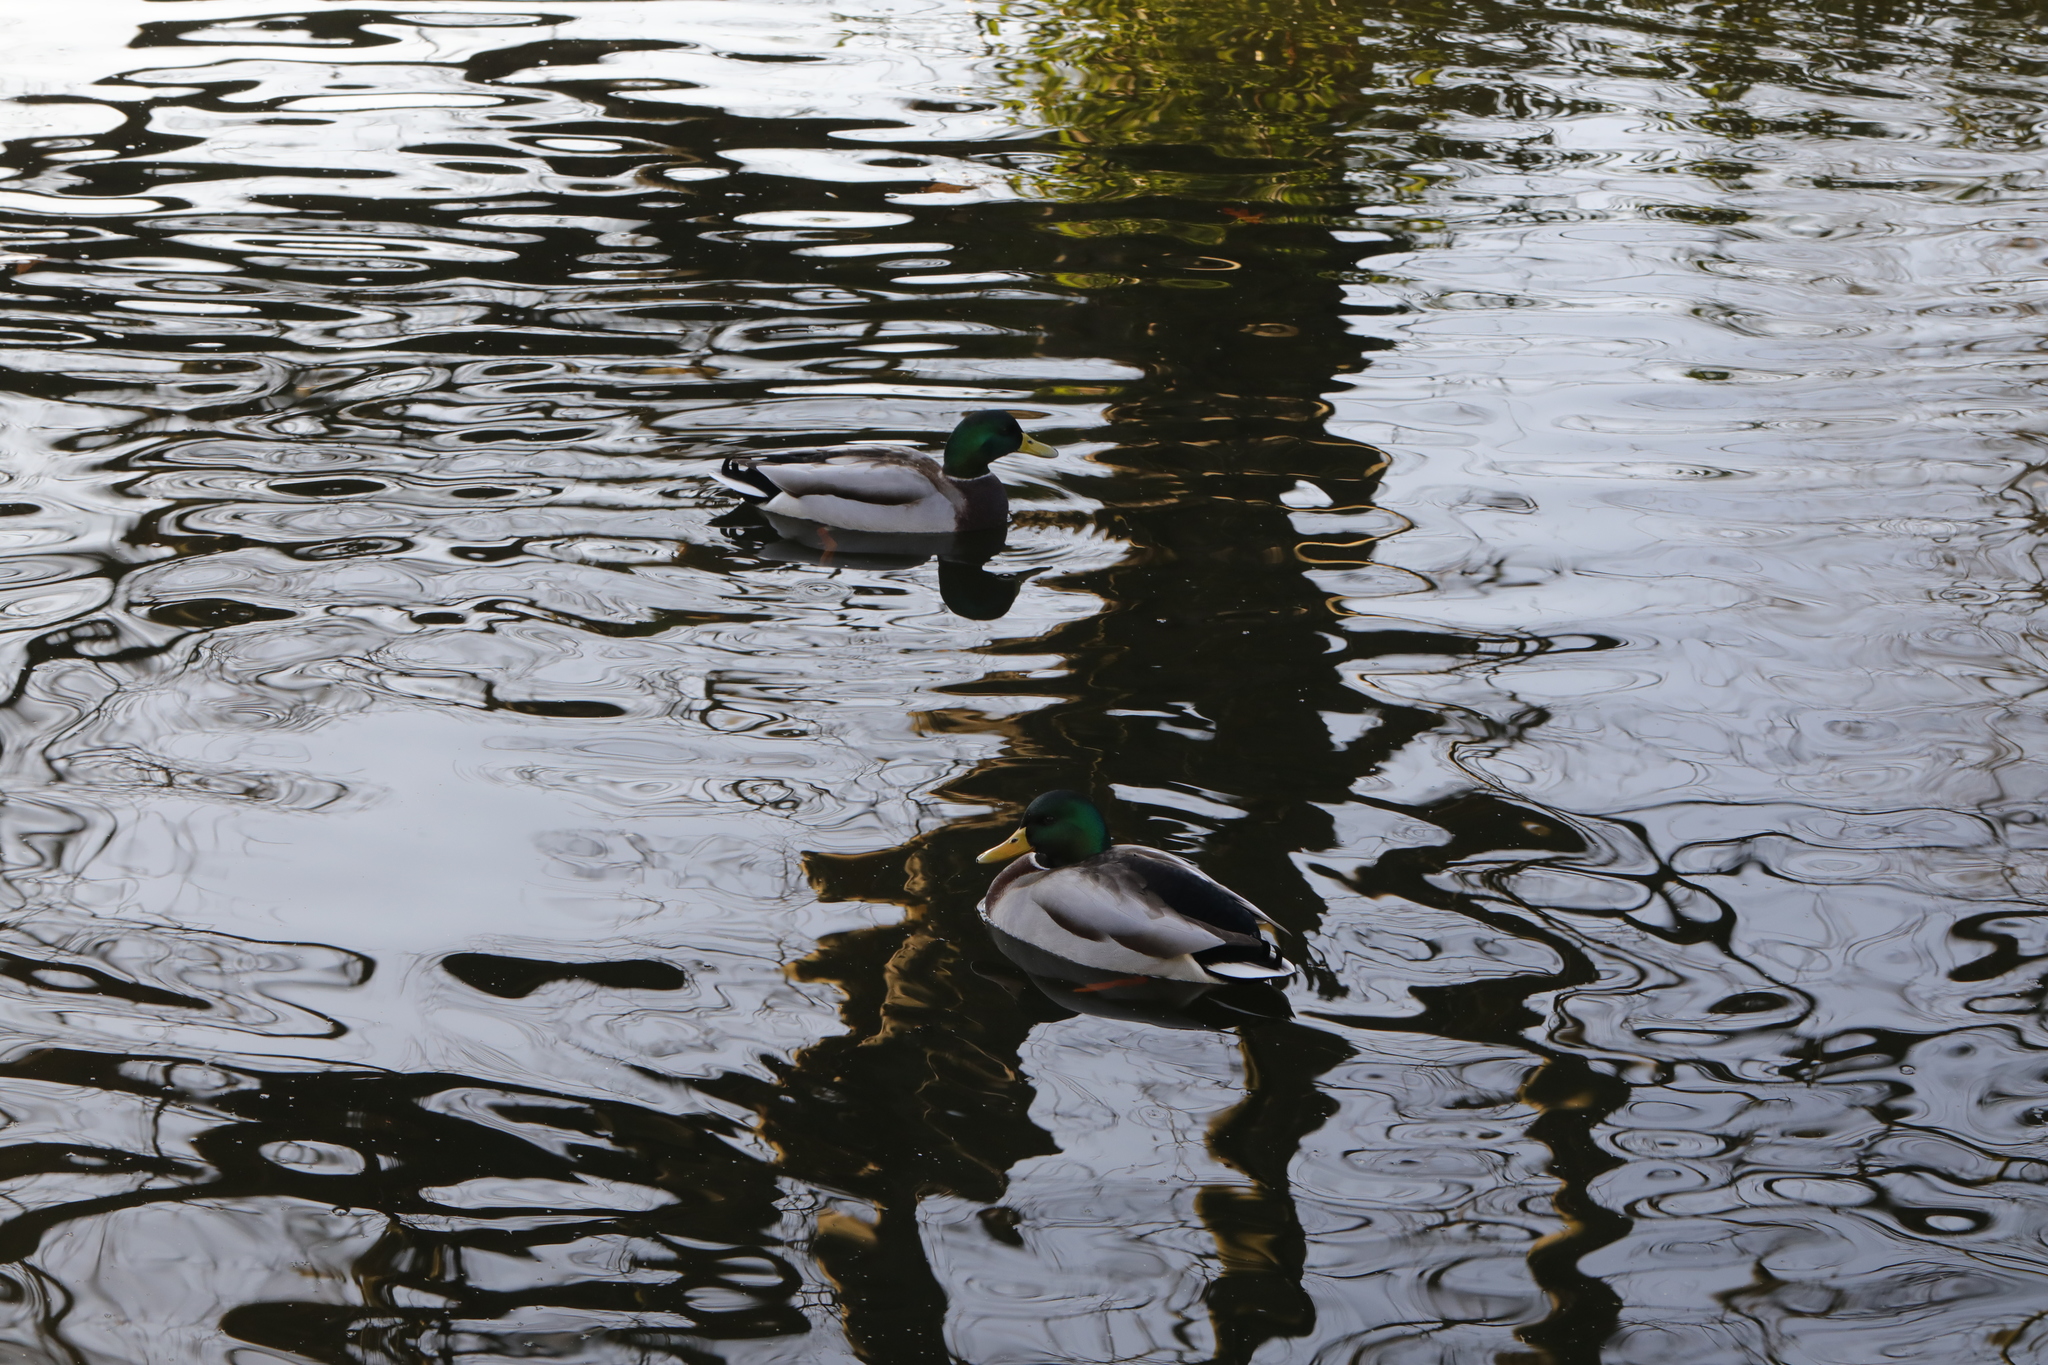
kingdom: Animalia
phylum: Chordata
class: Aves
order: Anseriformes
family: Anatidae
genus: Anas
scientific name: Anas platyrhynchos
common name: Mallard
